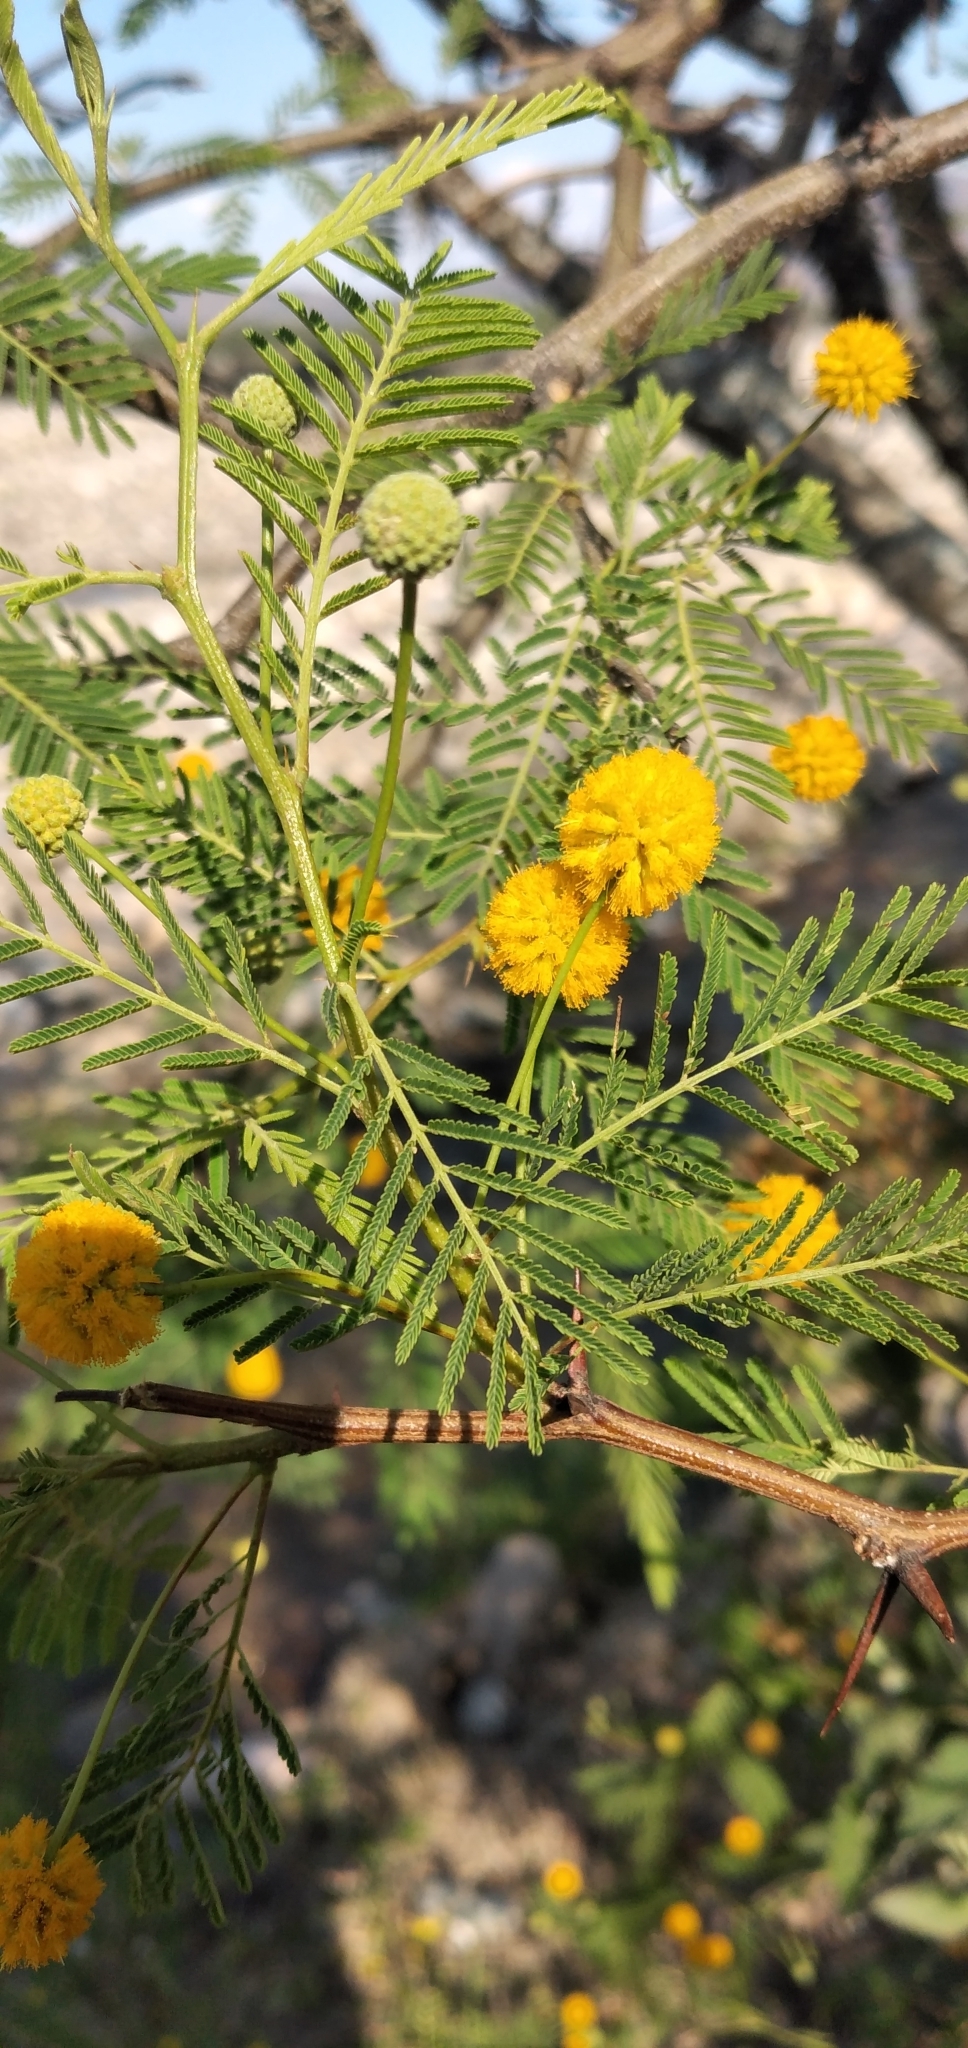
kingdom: Plantae
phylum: Tracheophyta
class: Magnoliopsida
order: Fabales
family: Fabaceae
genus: Vachellia
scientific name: Vachellia aroma
